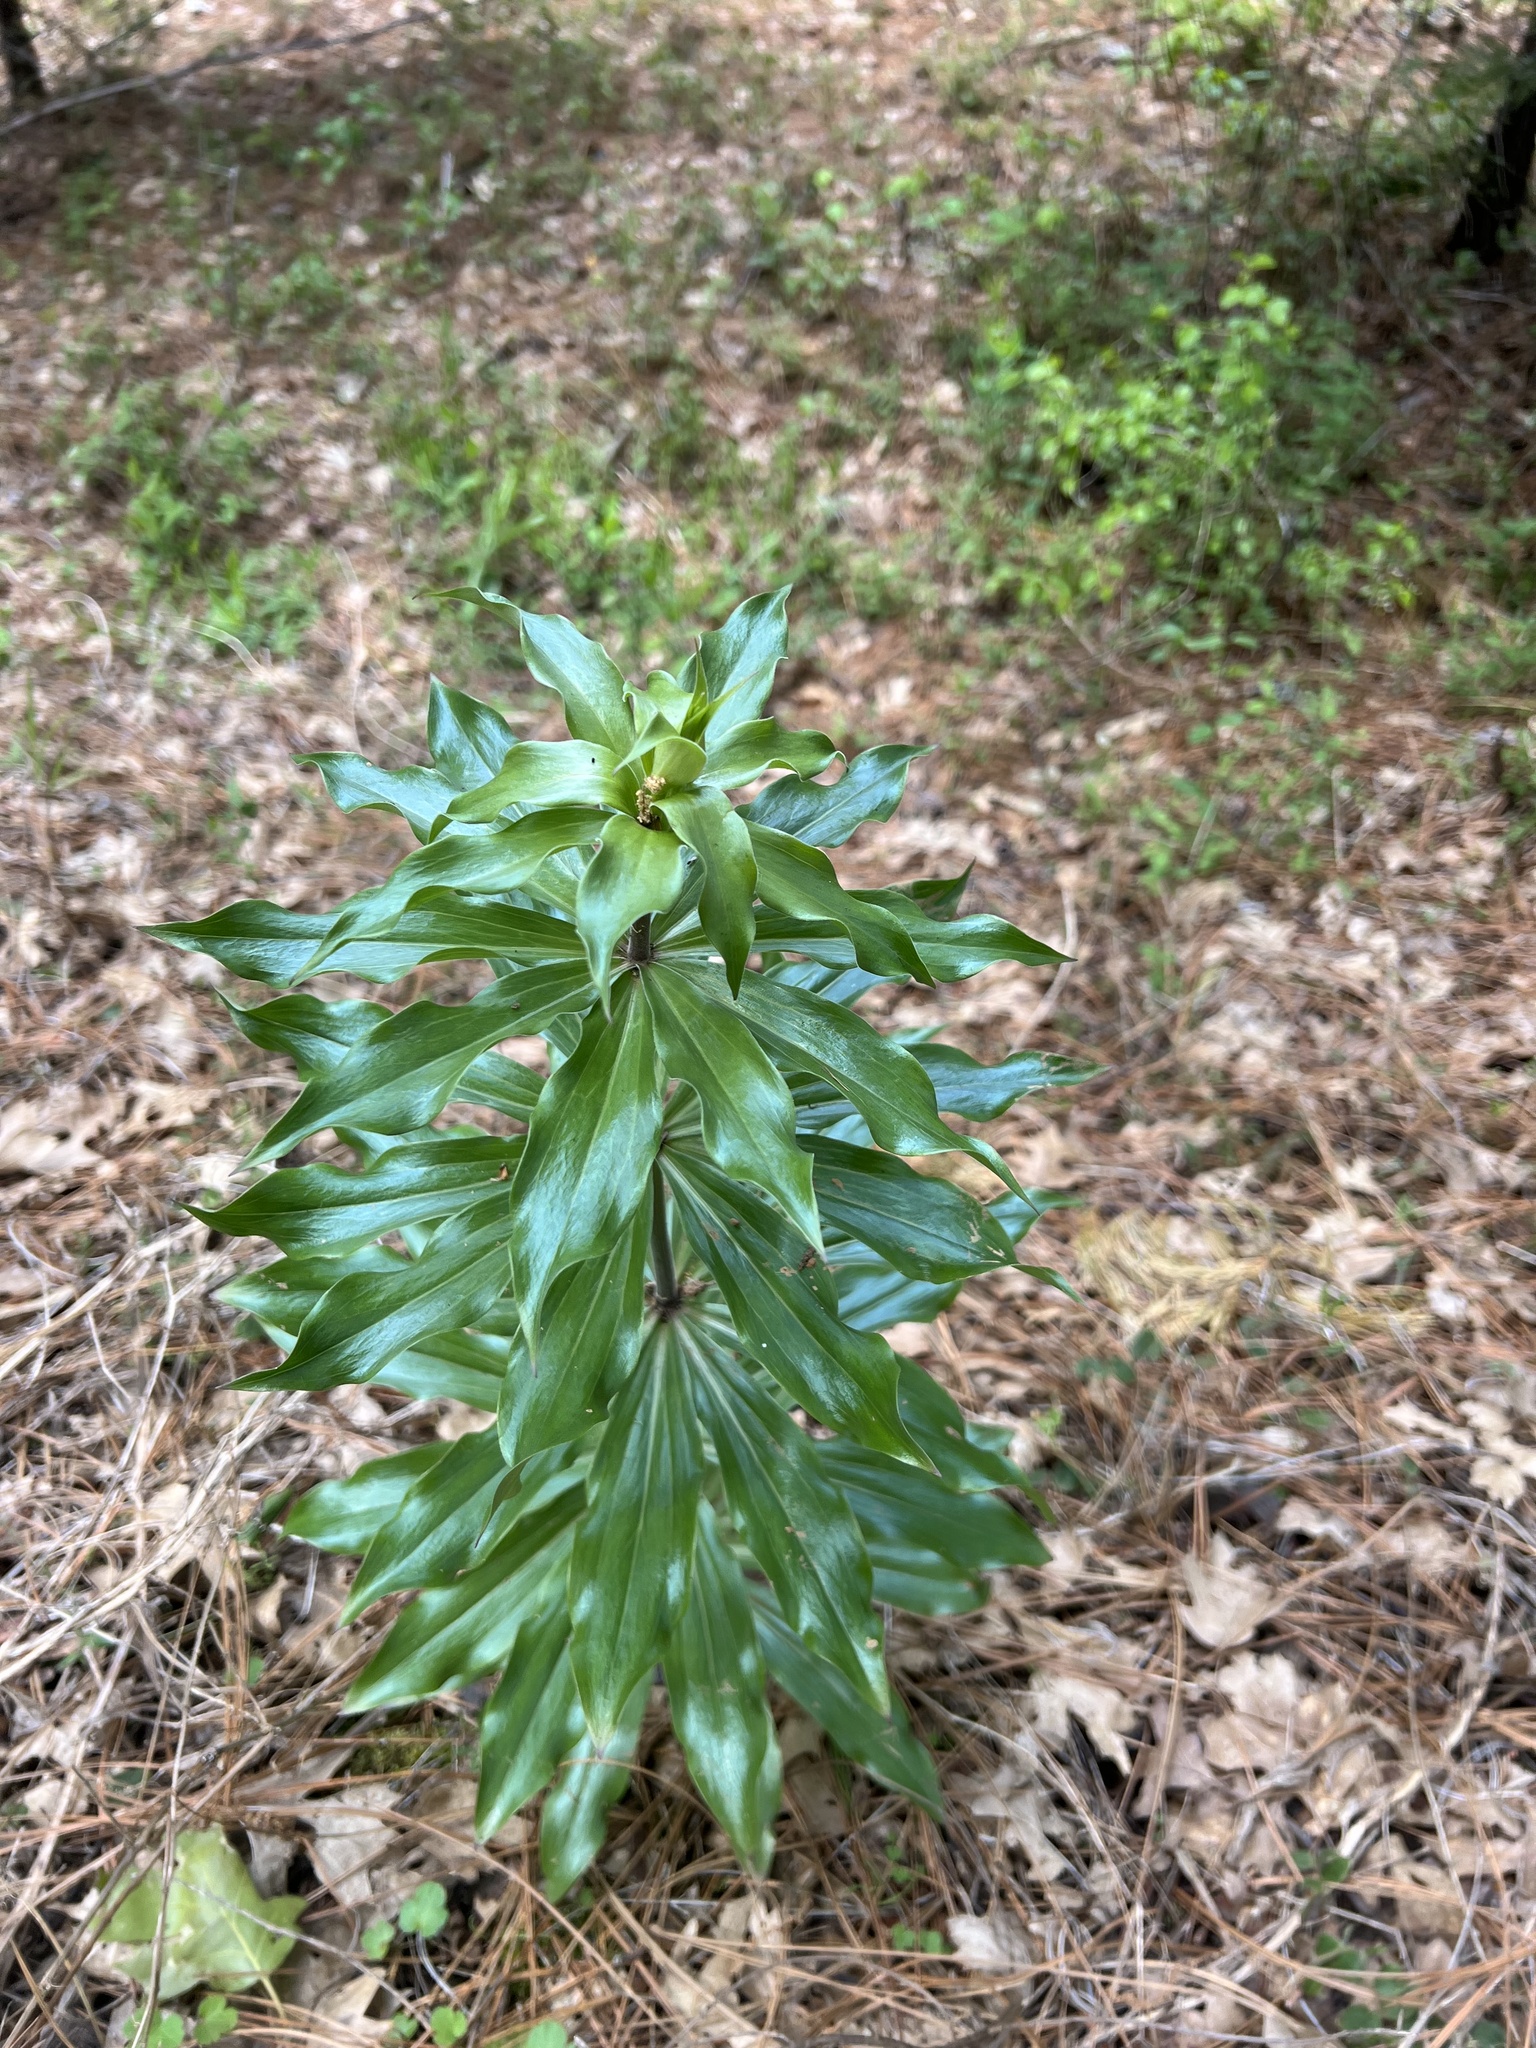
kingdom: Plantae
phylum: Tracheophyta
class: Liliopsida
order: Liliales
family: Liliaceae
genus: Lilium
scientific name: Lilium humboldtii
